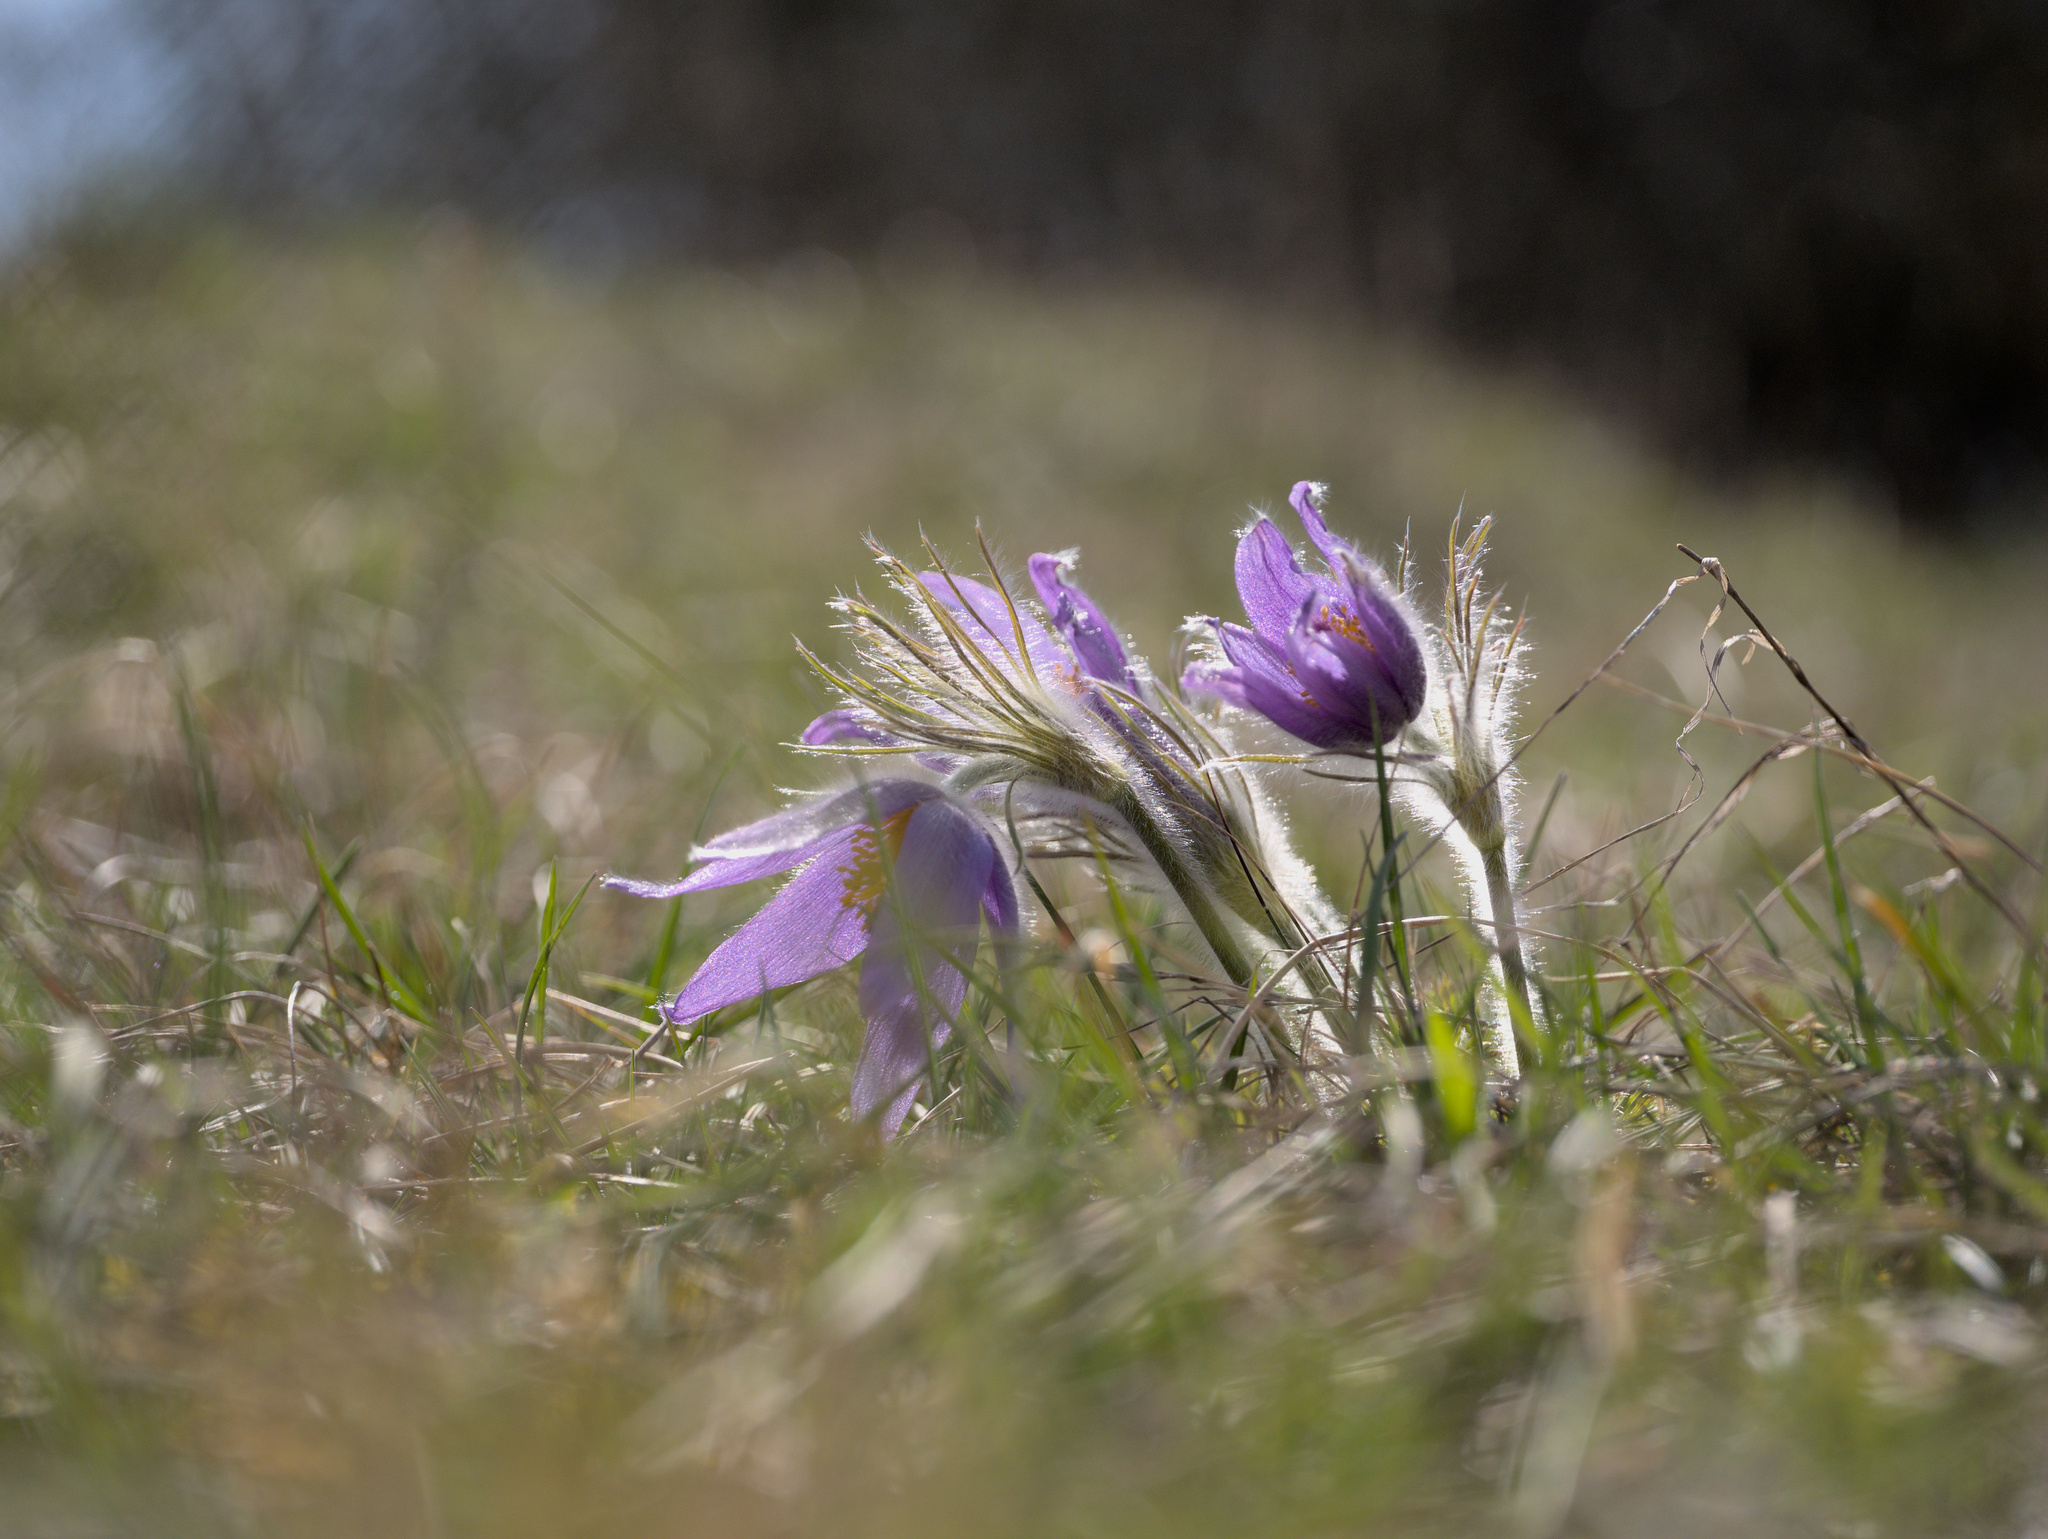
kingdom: Plantae
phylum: Tracheophyta
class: Magnoliopsida
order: Ranunculales
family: Ranunculaceae
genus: Pulsatilla
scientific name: Pulsatilla vulgaris
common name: Pasqueflower
